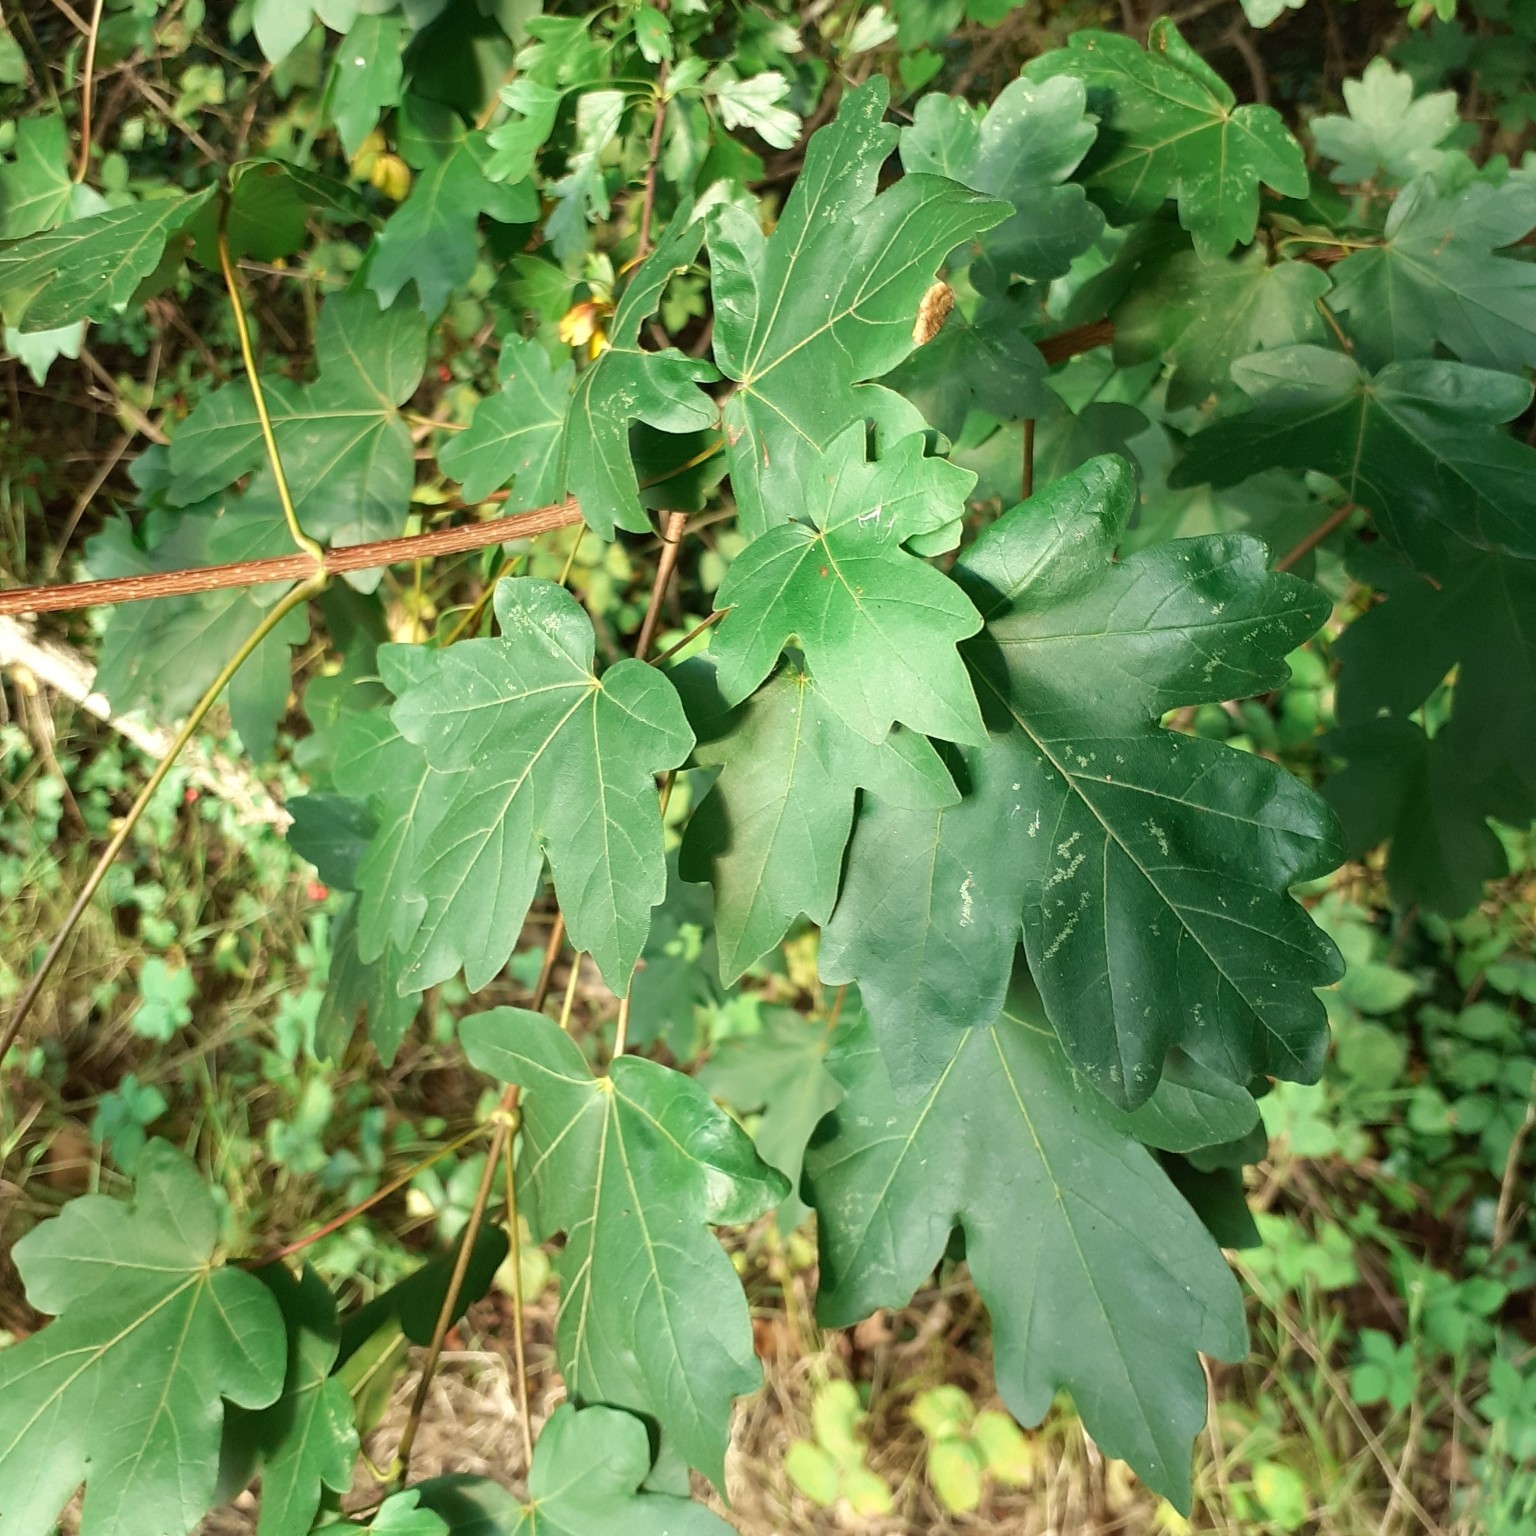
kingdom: Plantae
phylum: Tracheophyta
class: Magnoliopsida
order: Sapindales
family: Sapindaceae
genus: Acer
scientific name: Acer campestre
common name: Field maple
